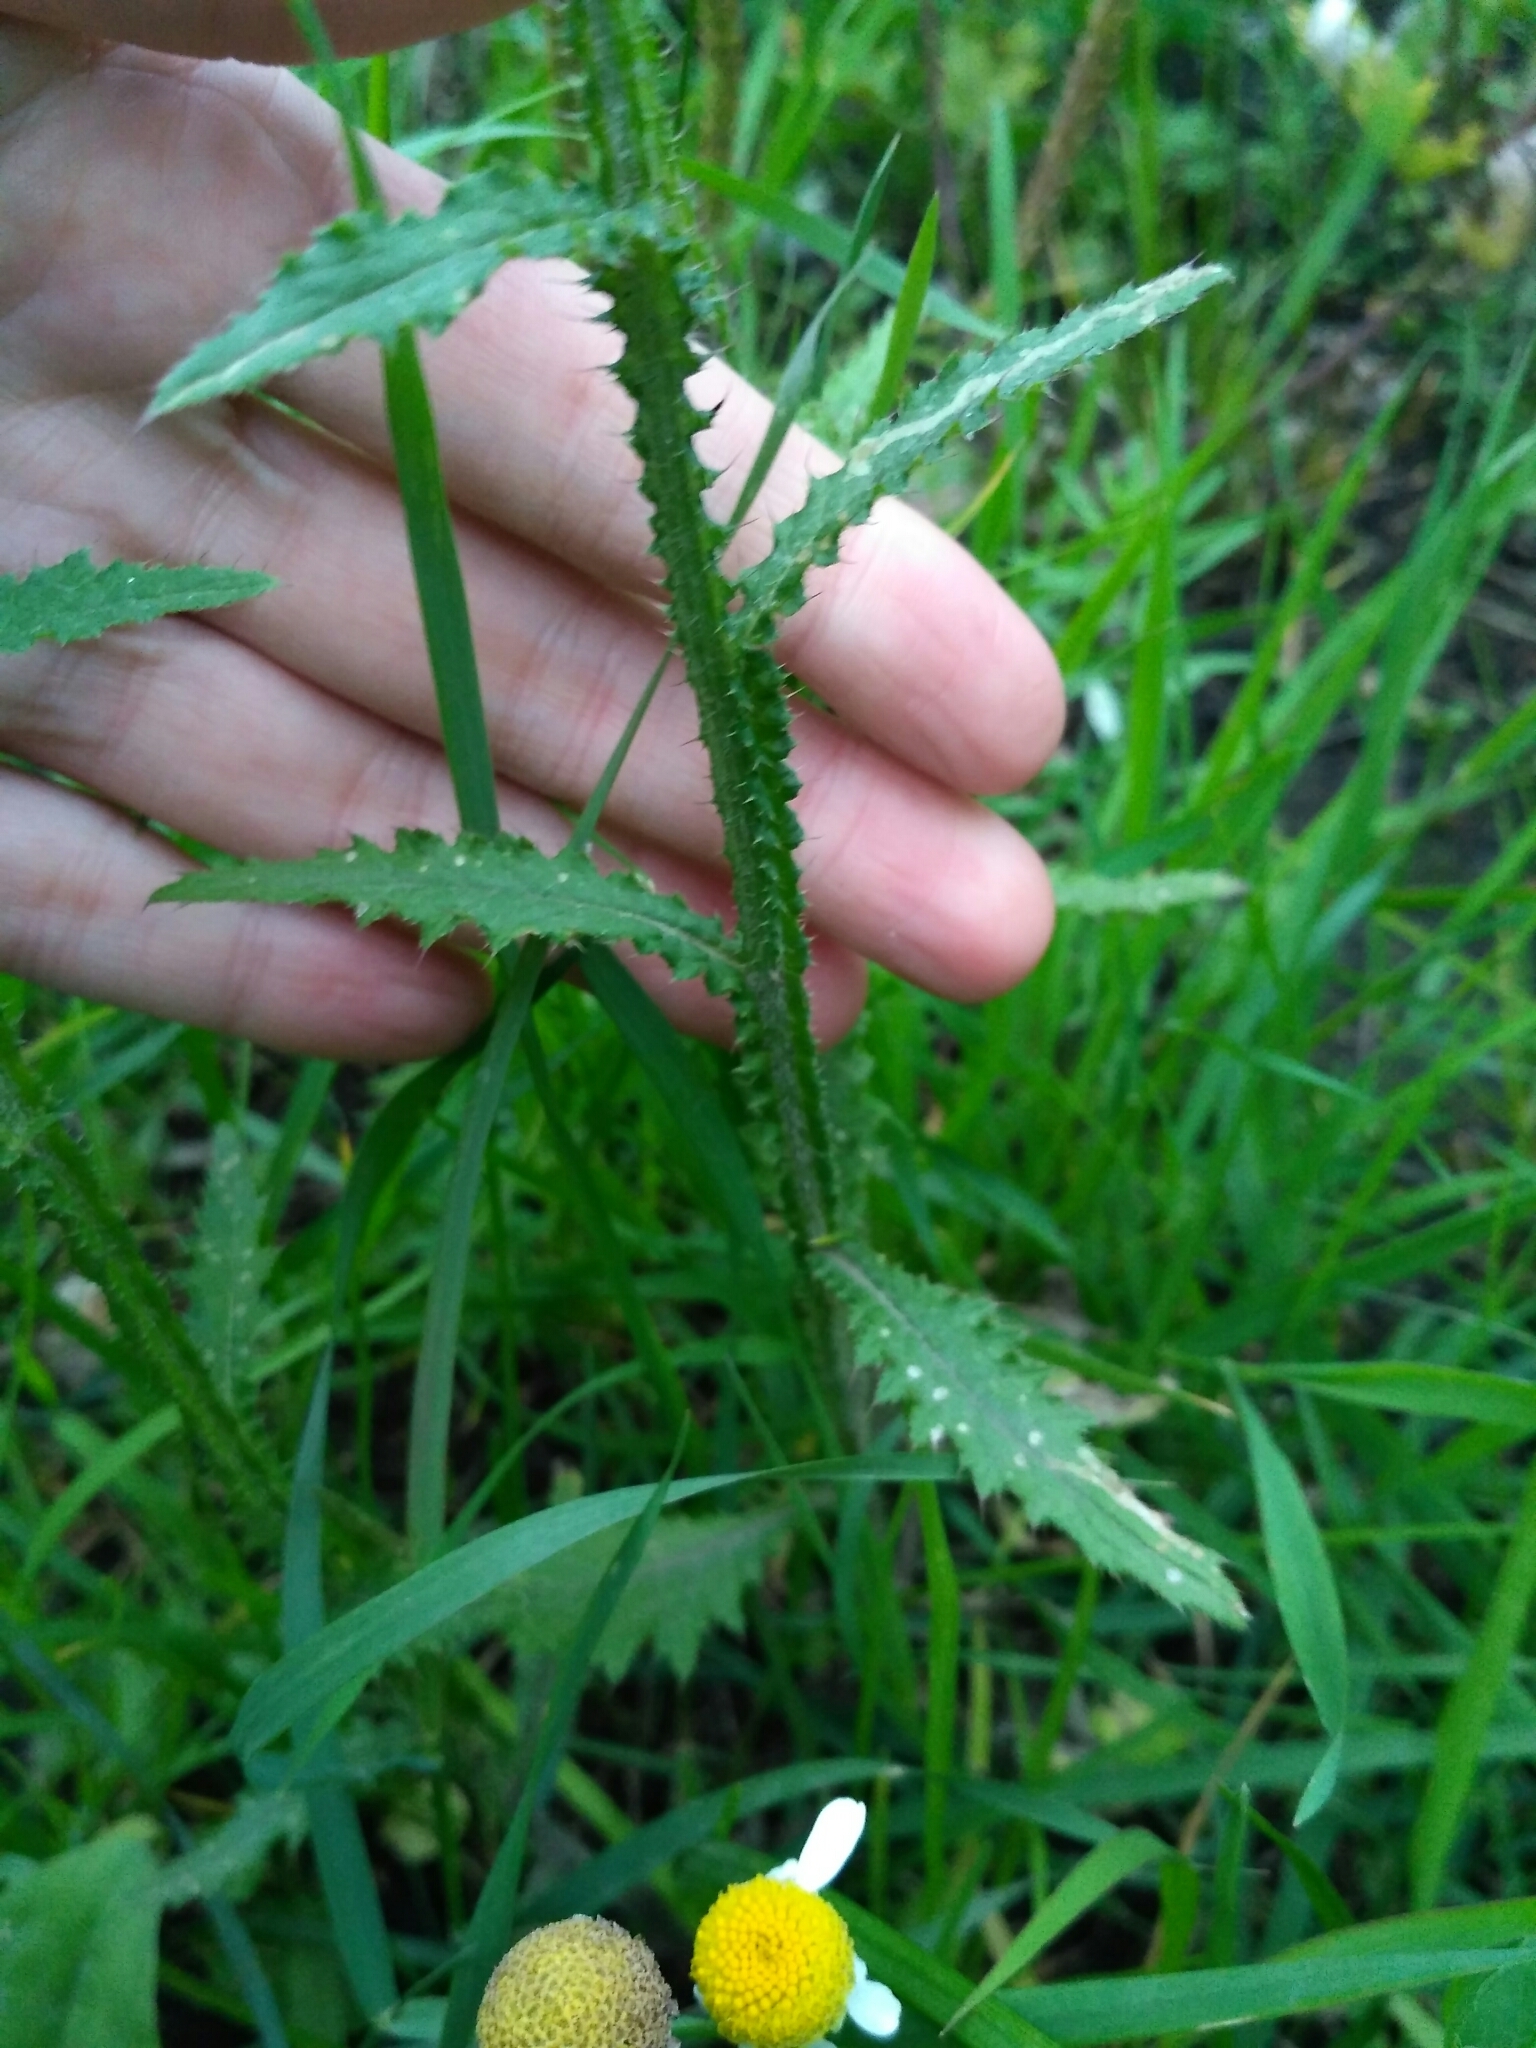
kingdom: Plantae
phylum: Tracheophyta
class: Magnoliopsida
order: Asterales
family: Asteraceae
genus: Carduus
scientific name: Carduus crispus
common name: Welted thistle
